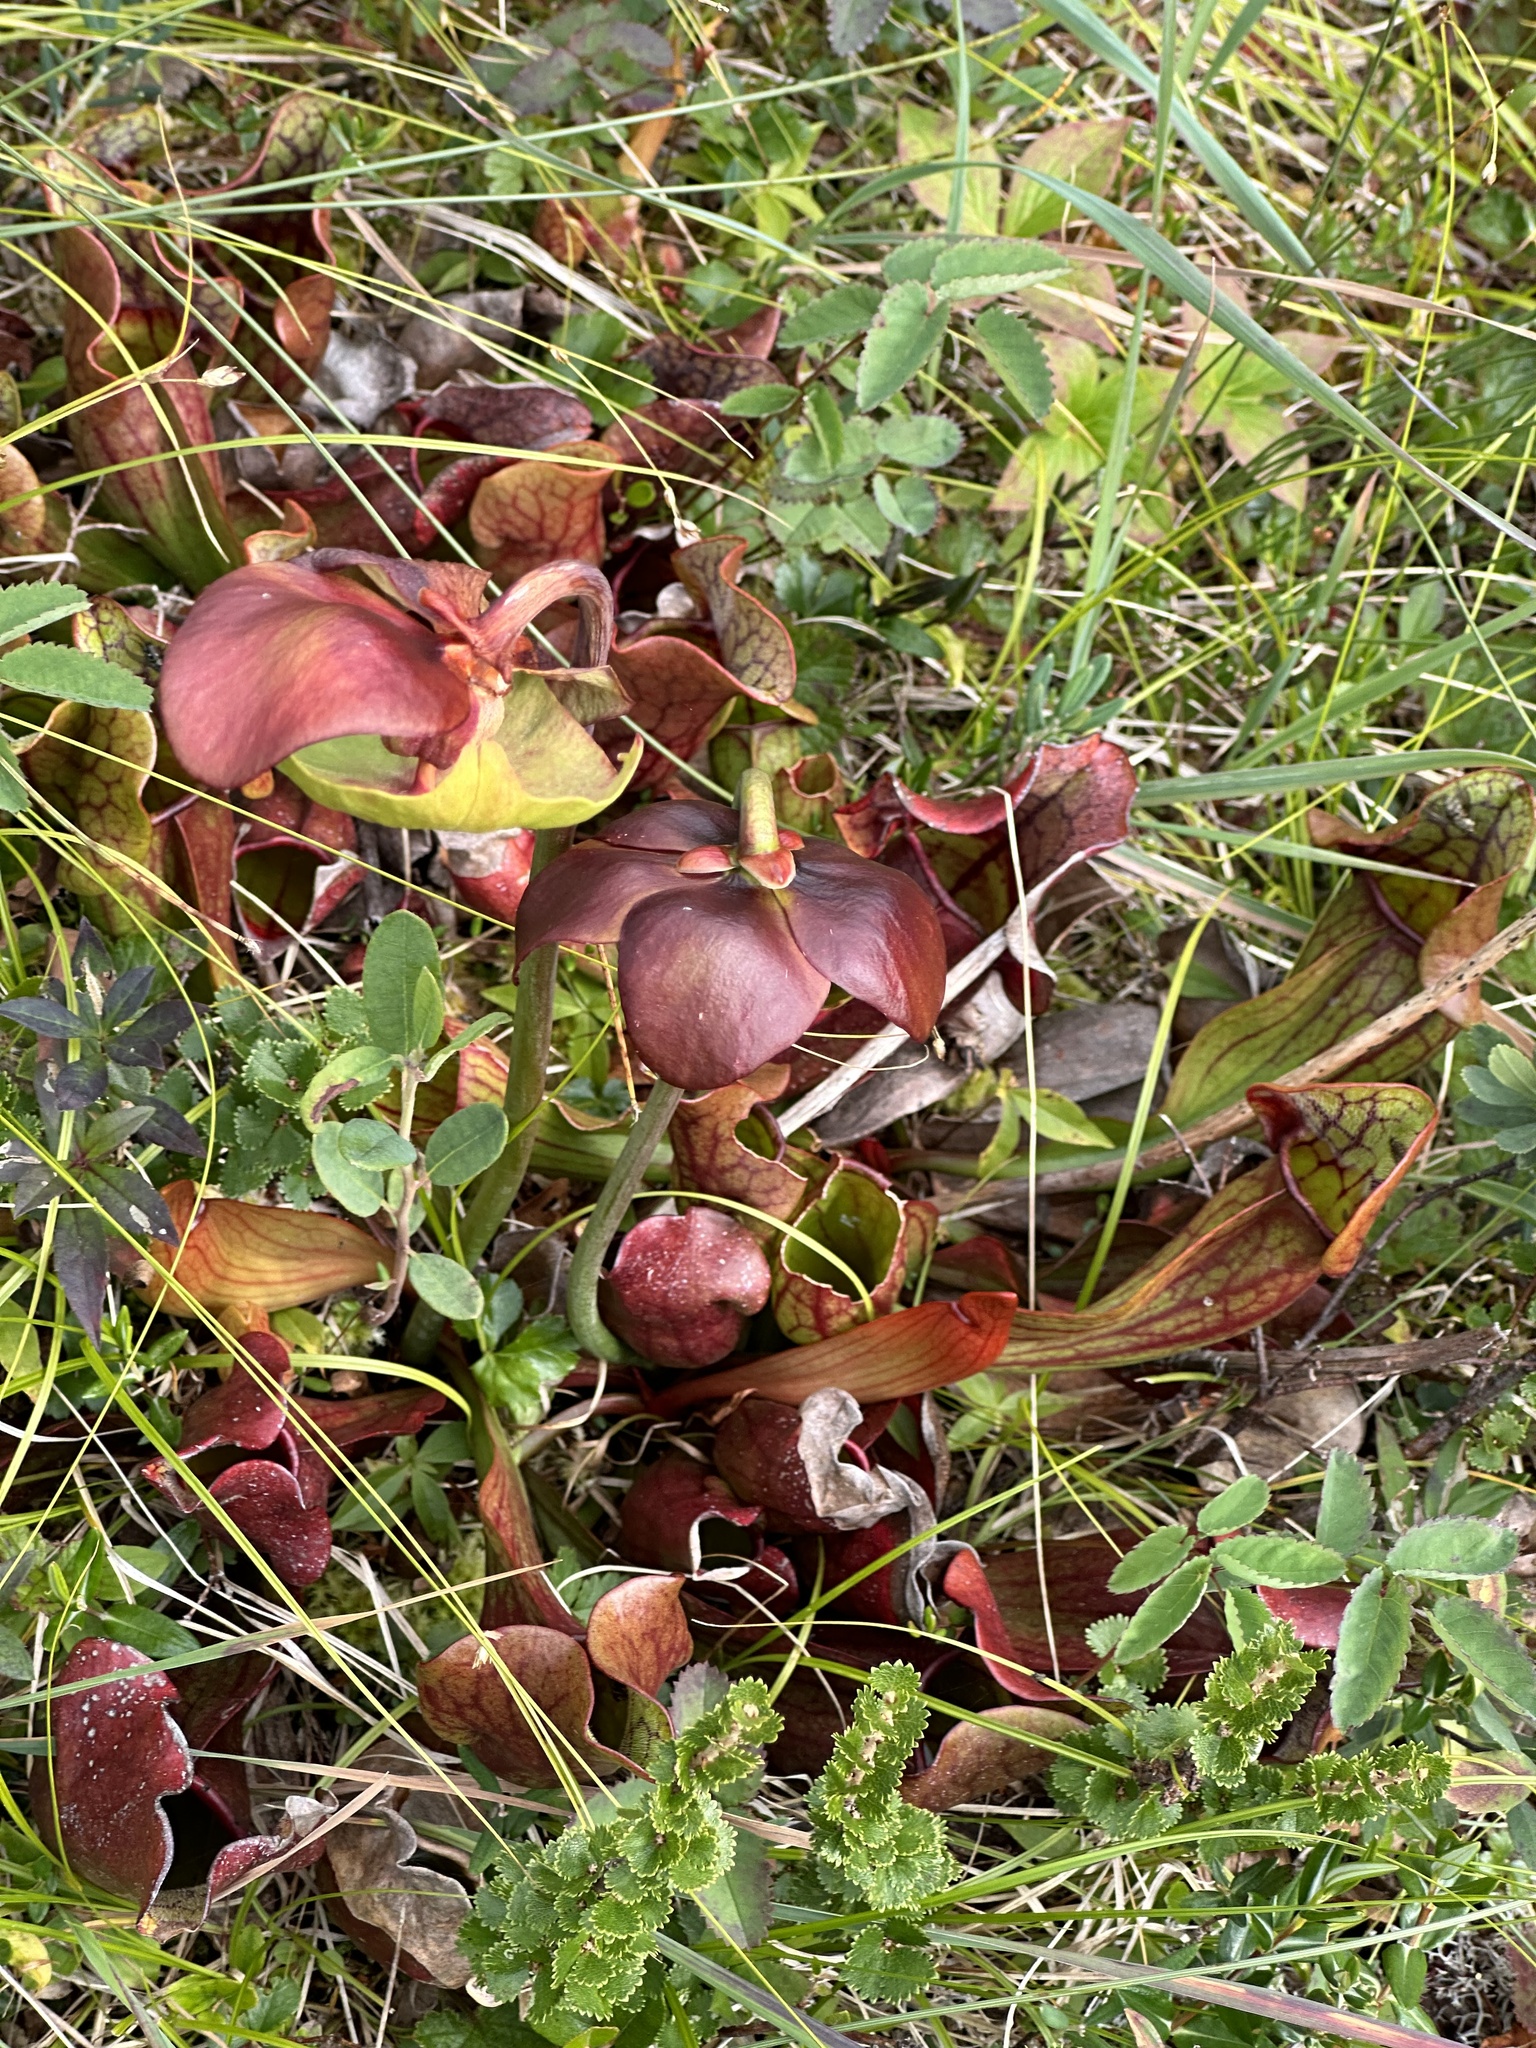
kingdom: Plantae
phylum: Tracheophyta
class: Magnoliopsida
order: Ericales
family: Sarraceniaceae
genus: Sarracenia
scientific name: Sarracenia purpurea
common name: Pitcherplant
